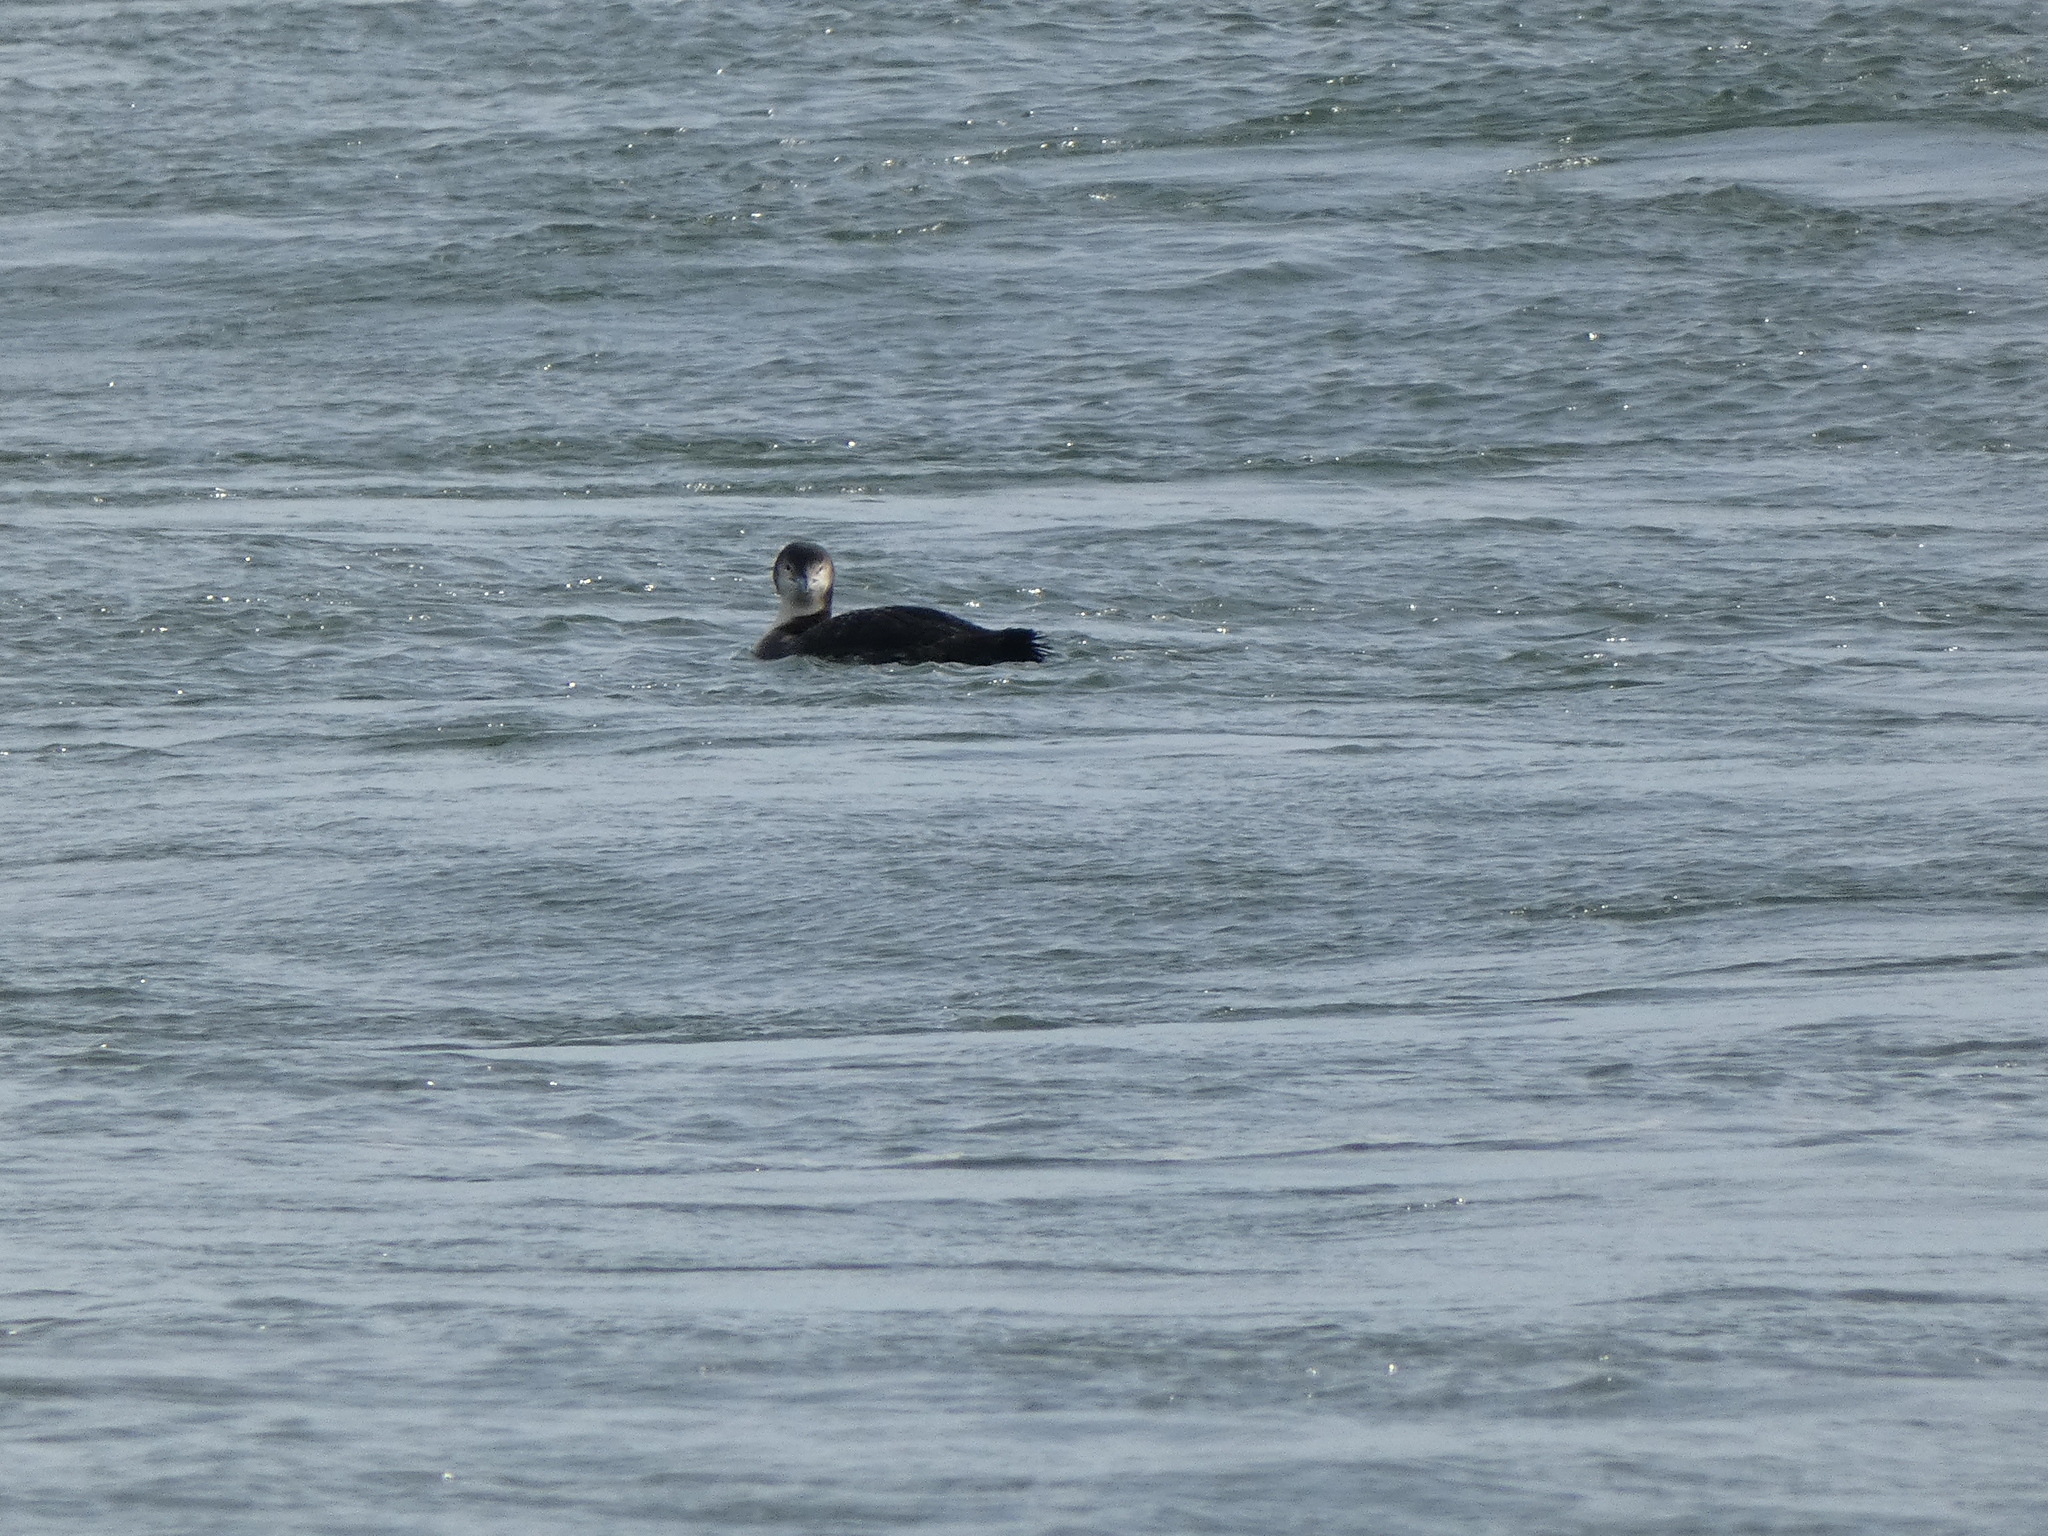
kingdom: Animalia
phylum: Chordata
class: Aves
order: Gaviiformes
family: Gaviidae
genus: Gavia
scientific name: Gavia immer
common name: Common loon
